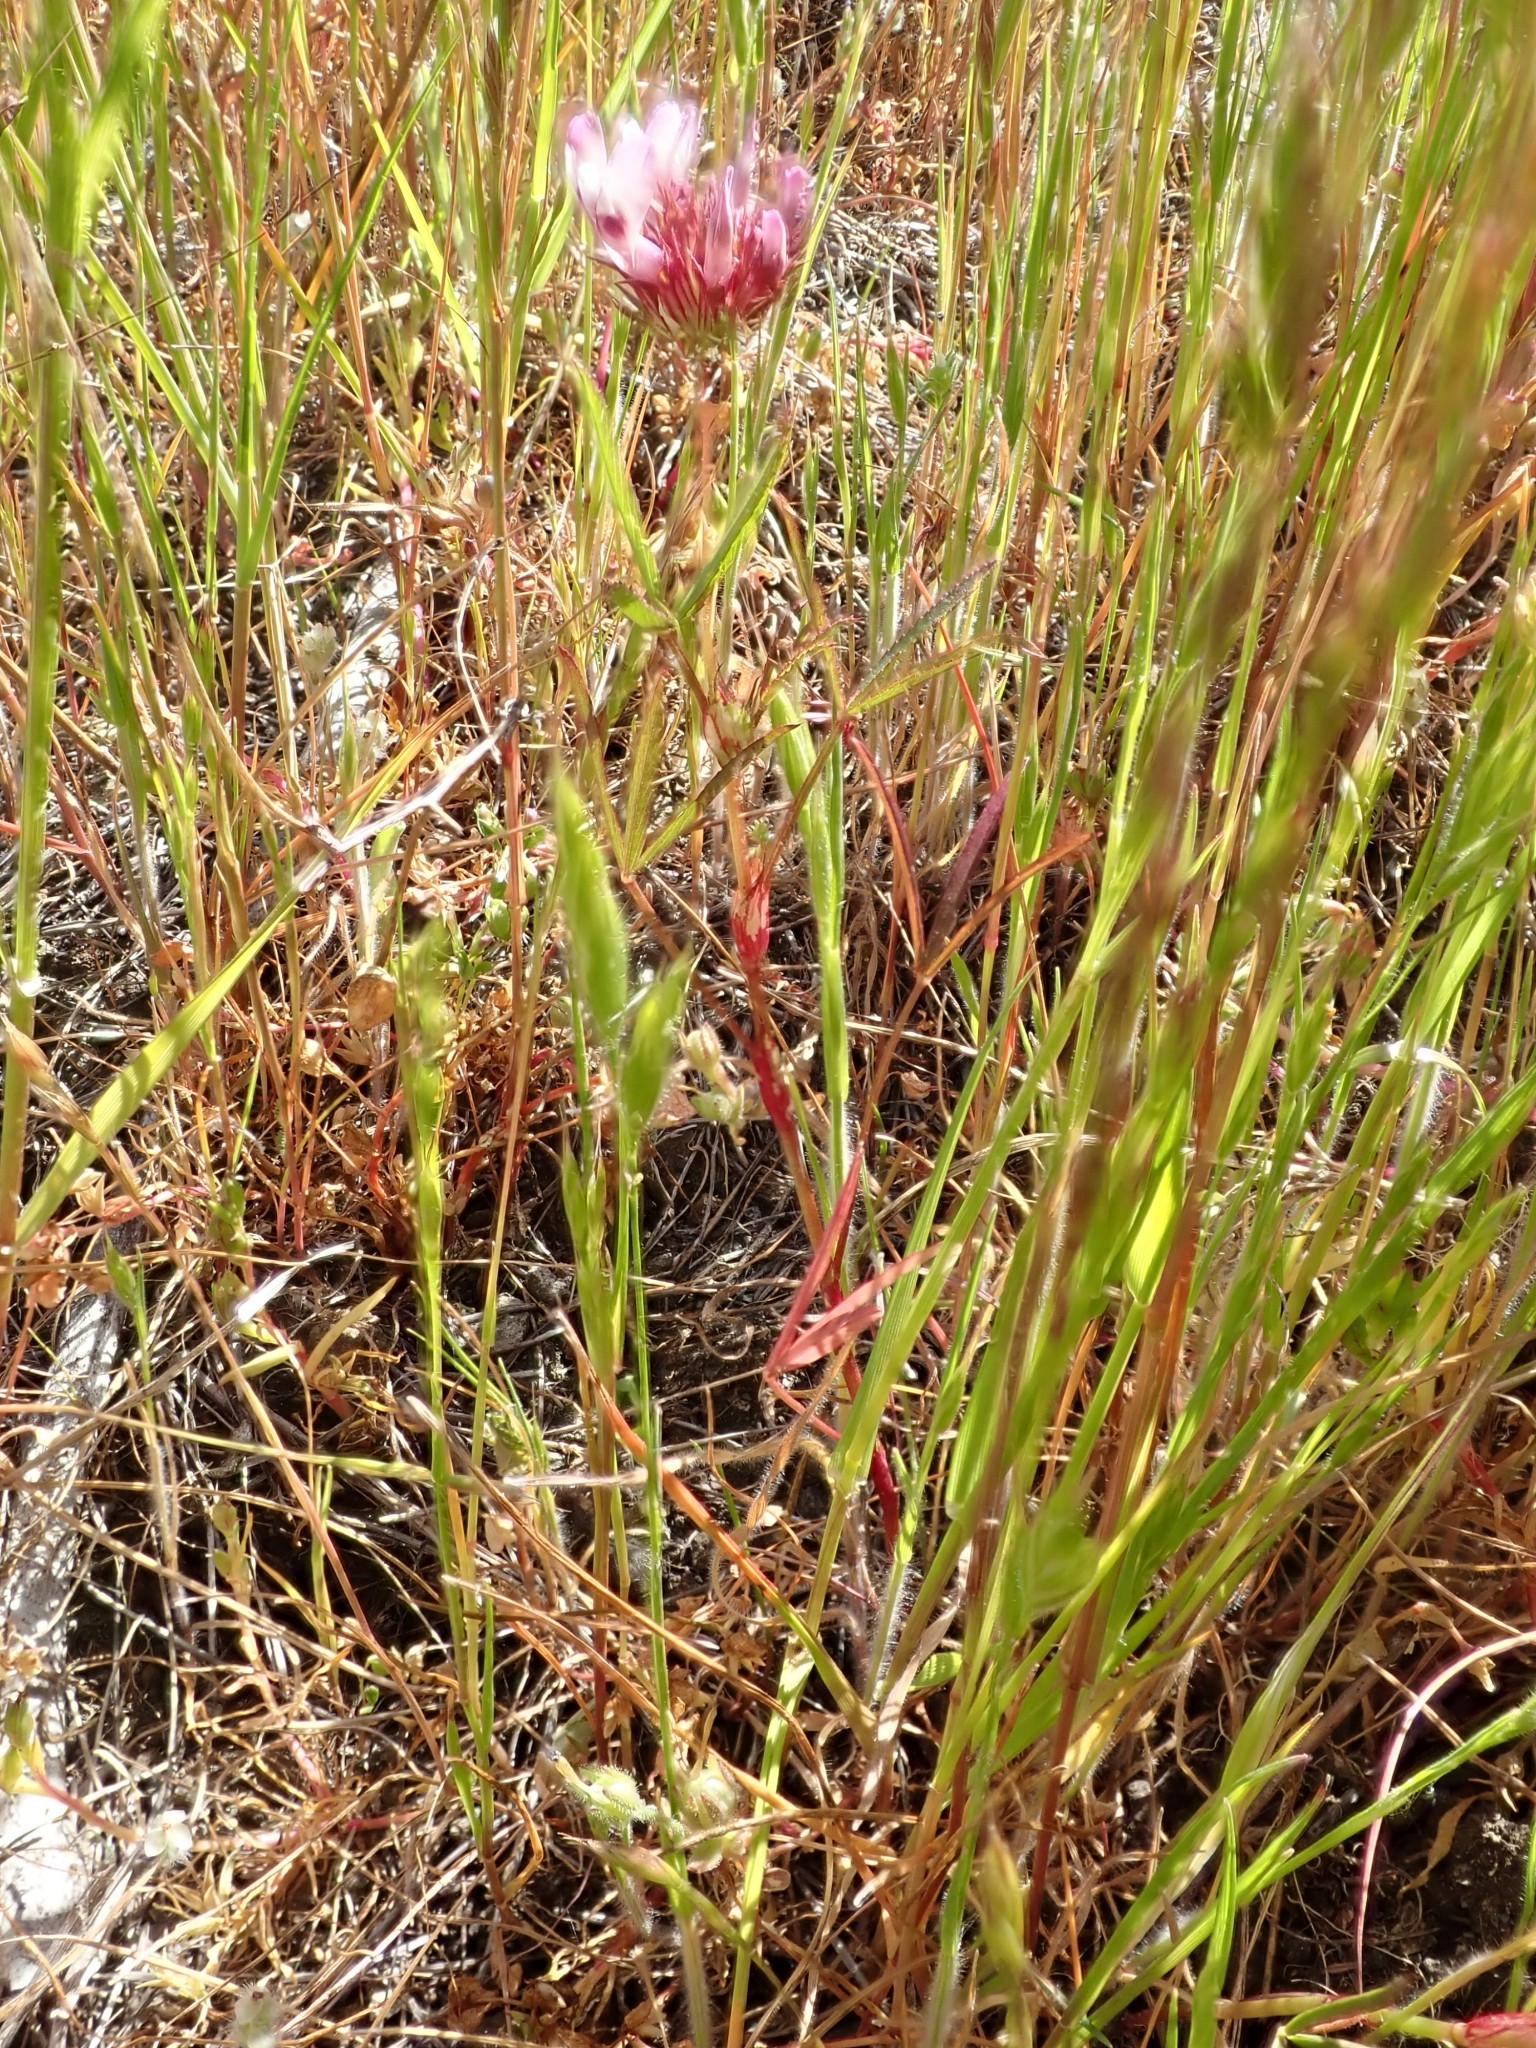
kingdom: Plantae
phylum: Tracheophyta
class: Magnoliopsida
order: Fabales
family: Fabaceae
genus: Trifolium
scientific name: Trifolium willdenovii
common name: Tomcat clover
